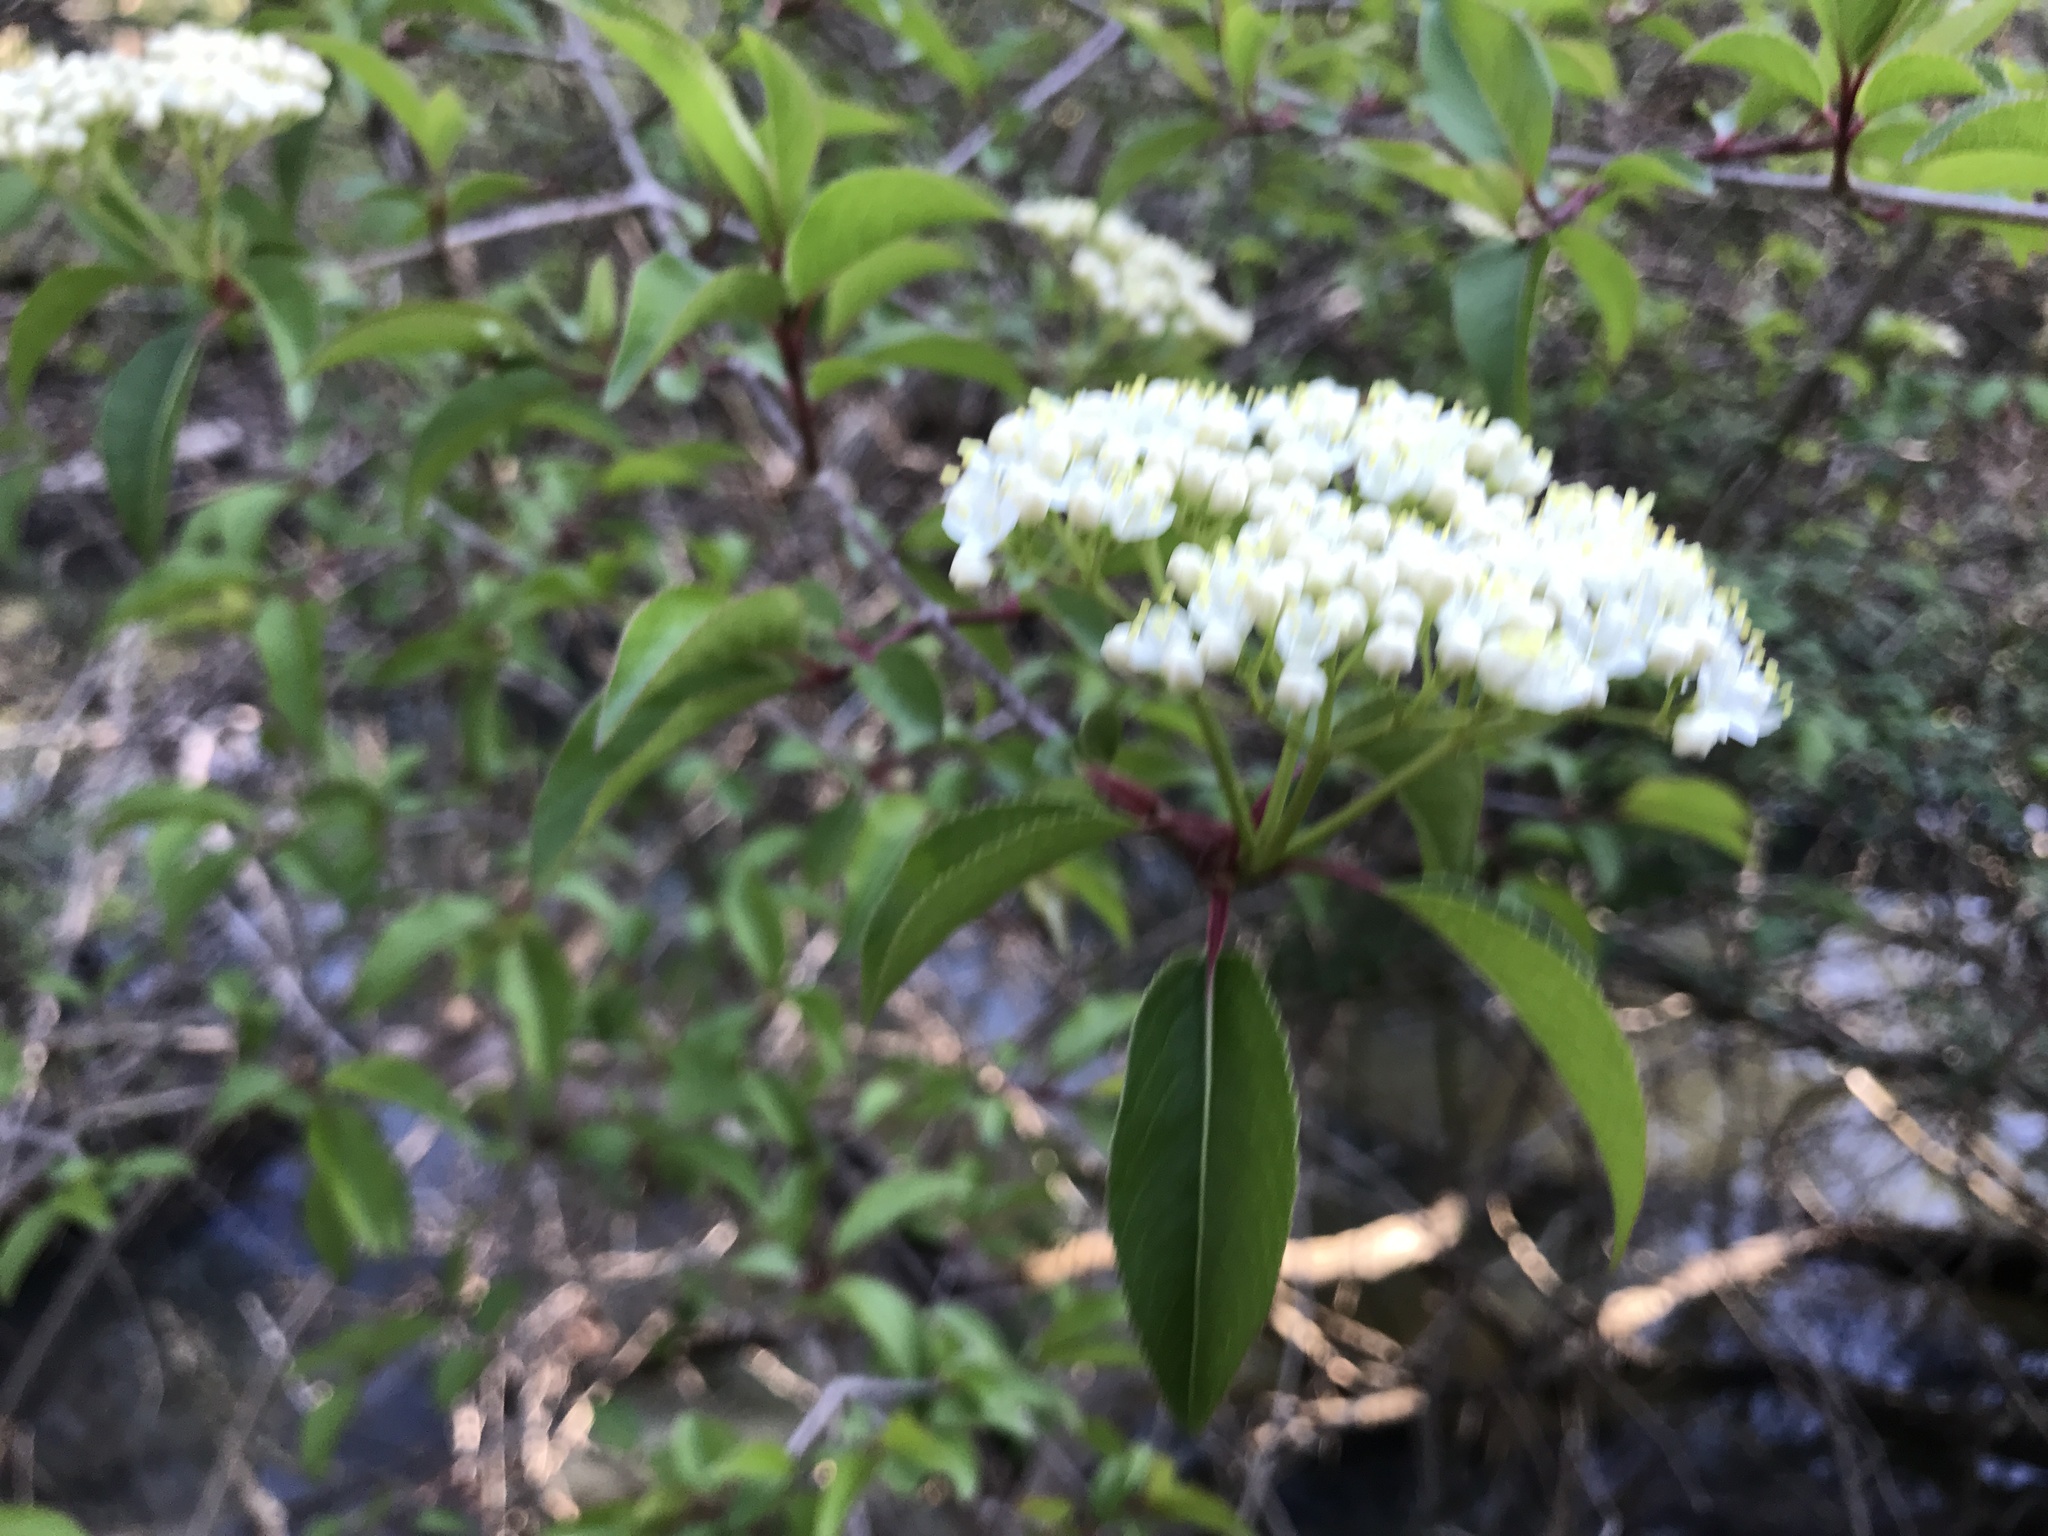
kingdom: Plantae
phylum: Tracheophyta
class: Magnoliopsida
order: Dipsacales
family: Viburnaceae
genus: Viburnum
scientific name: Viburnum prunifolium
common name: Black haw
